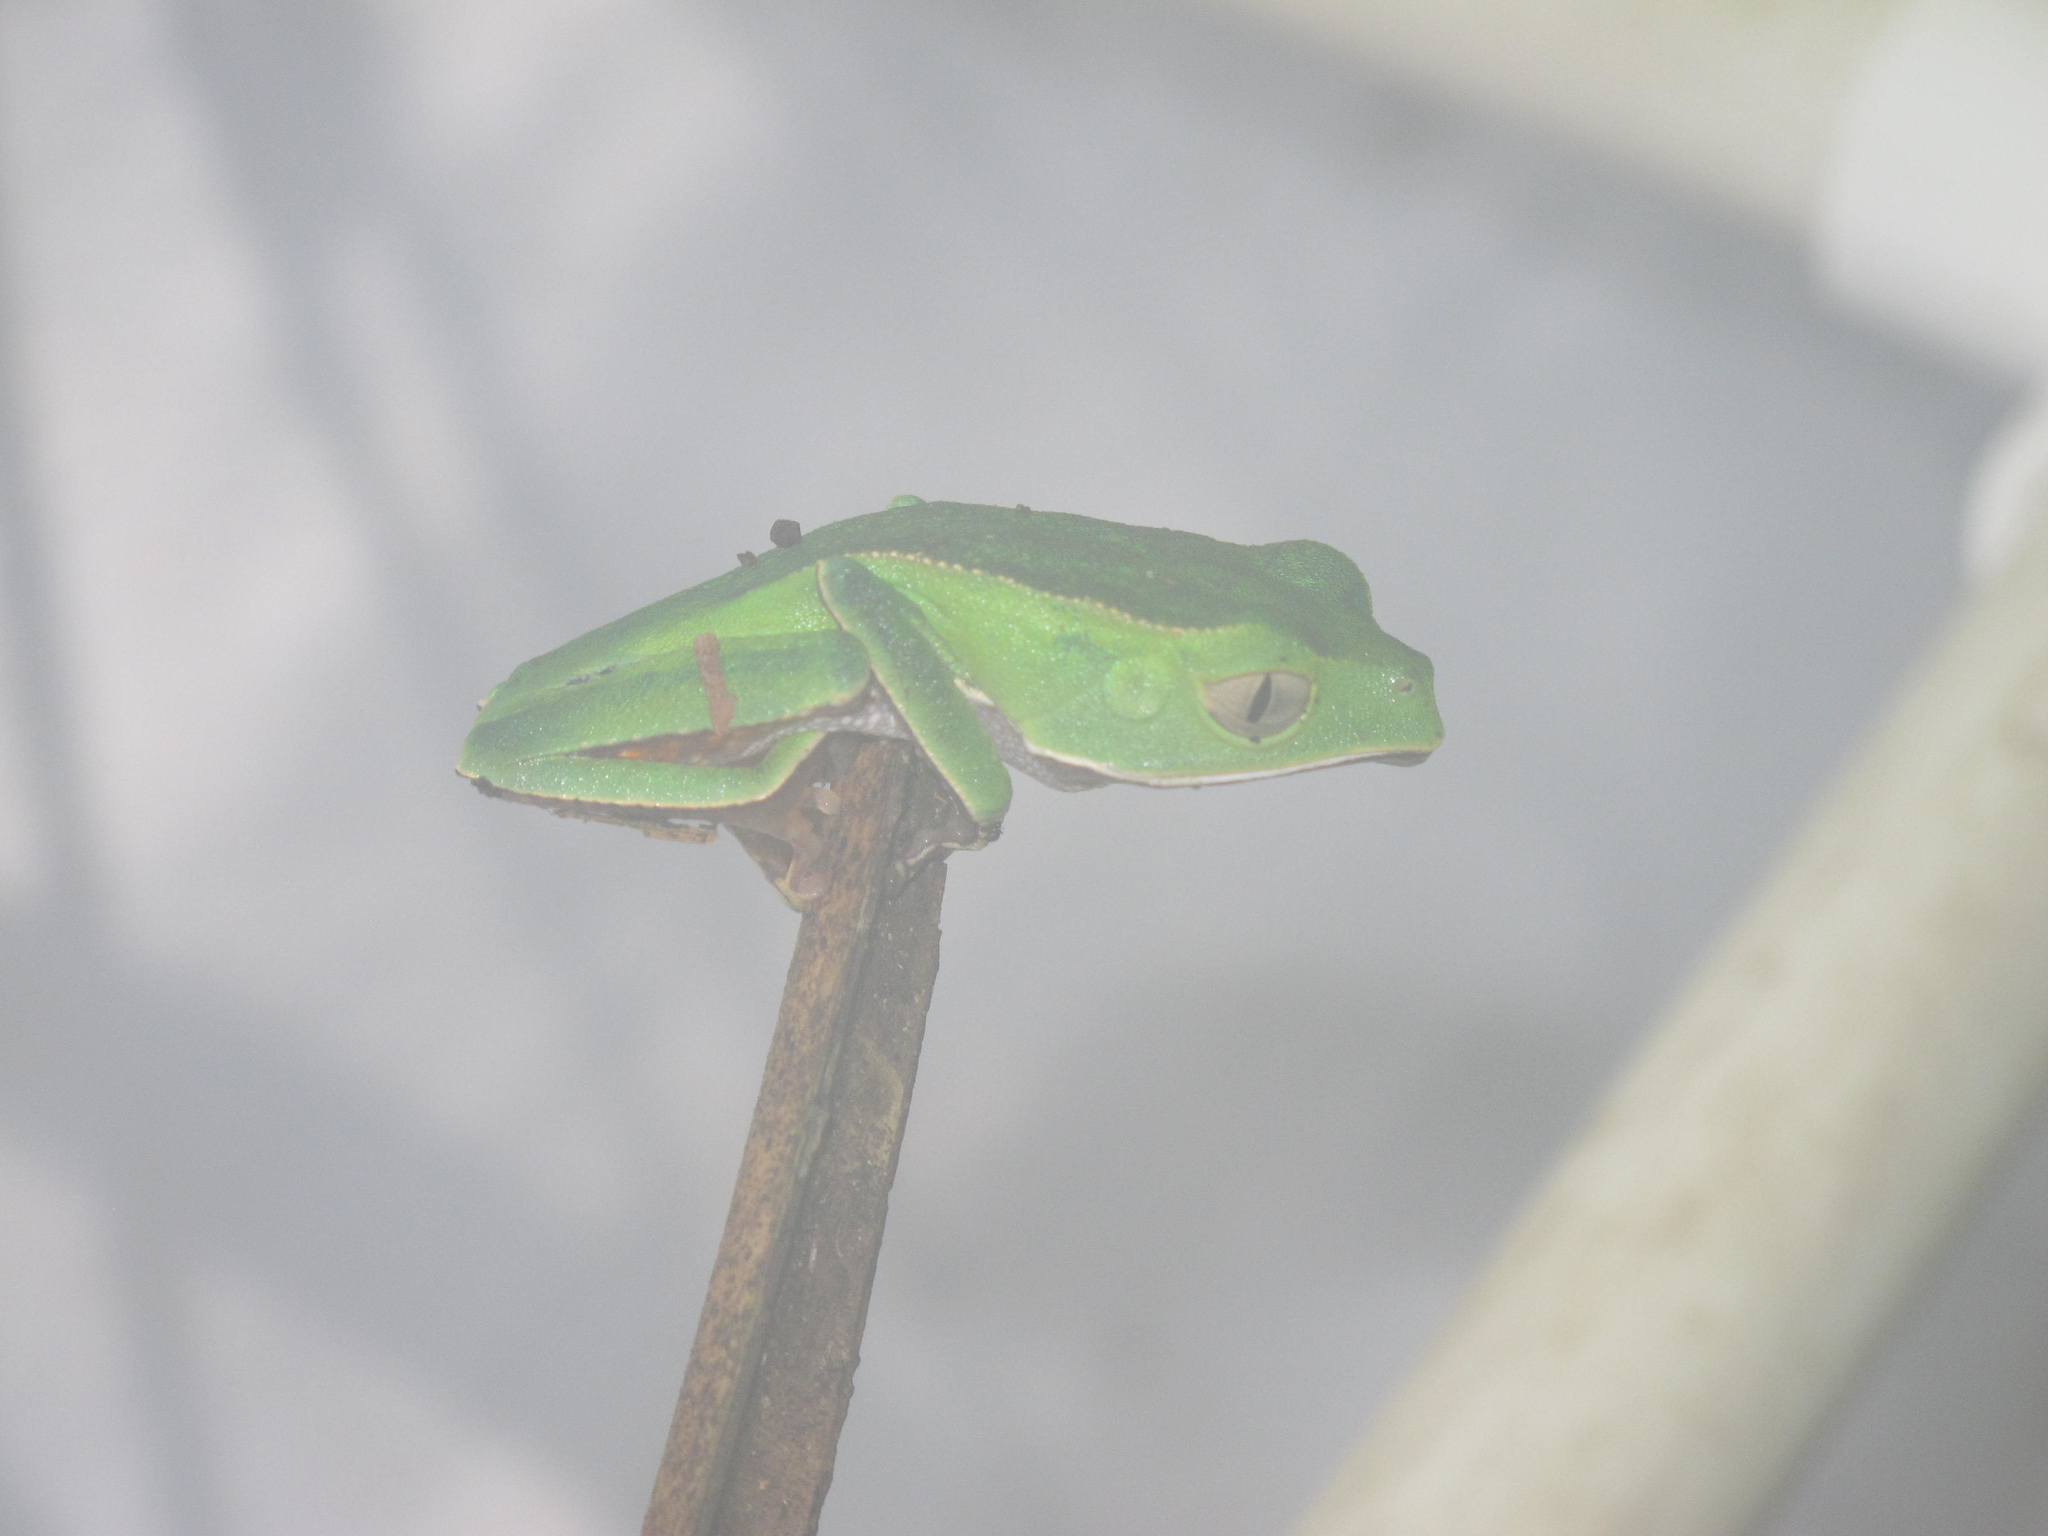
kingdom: Animalia
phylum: Chordata
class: Amphibia
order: Anura
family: Phyllomedusidae
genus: Phyllomedusa
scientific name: Phyllomedusa vaillantii
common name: White-lined leaf frog
